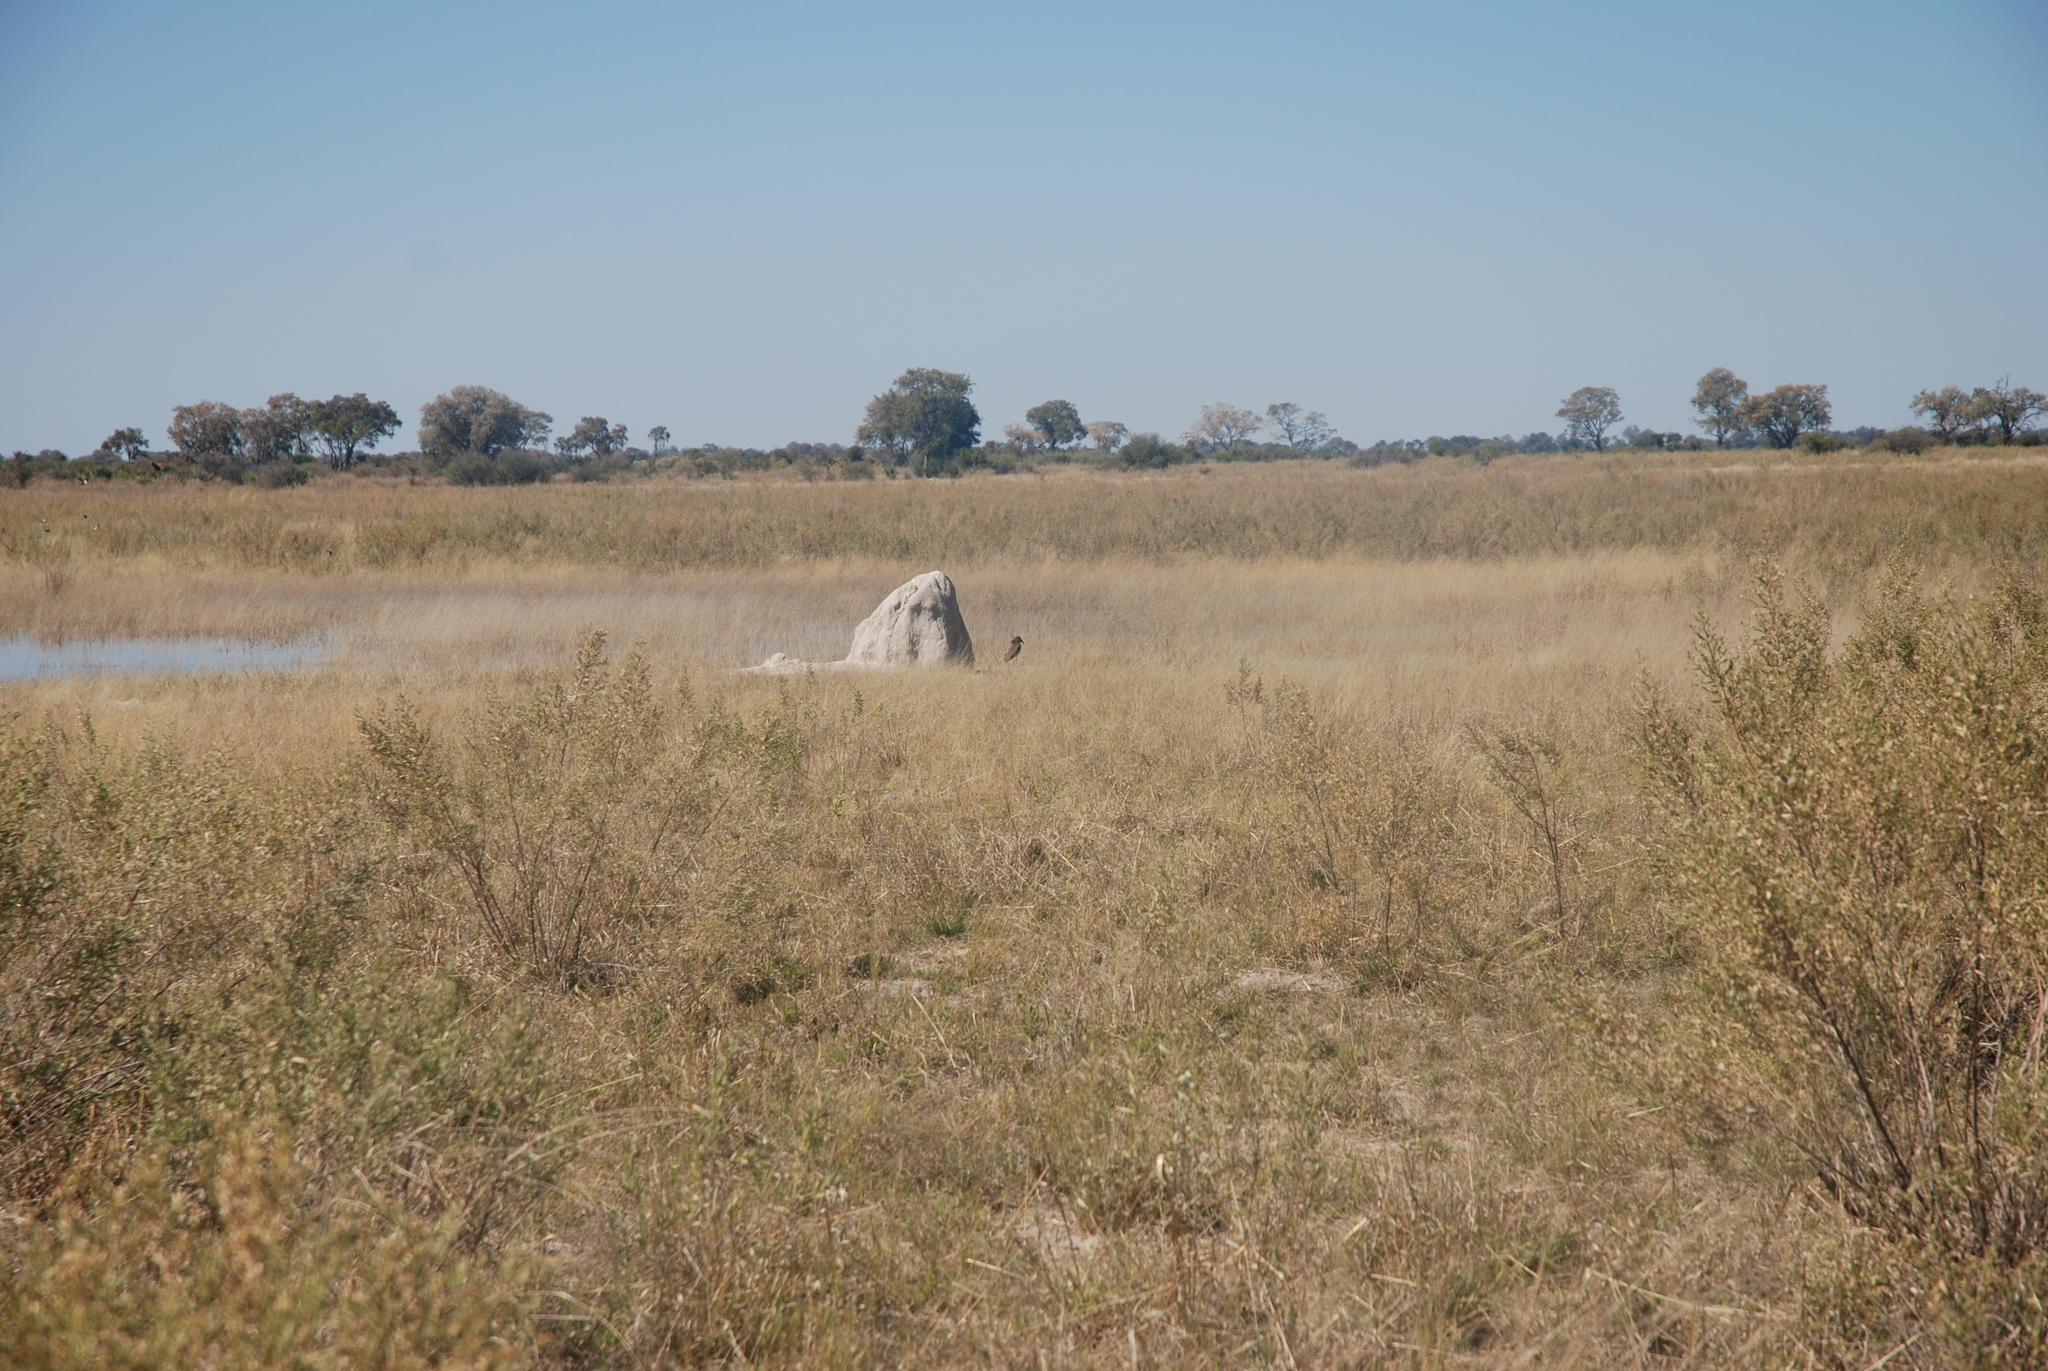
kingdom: Animalia
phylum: Chordata
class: Aves
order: Pelecaniformes
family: Scopidae
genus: Scopus
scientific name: Scopus umbretta
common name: Hamerkop
